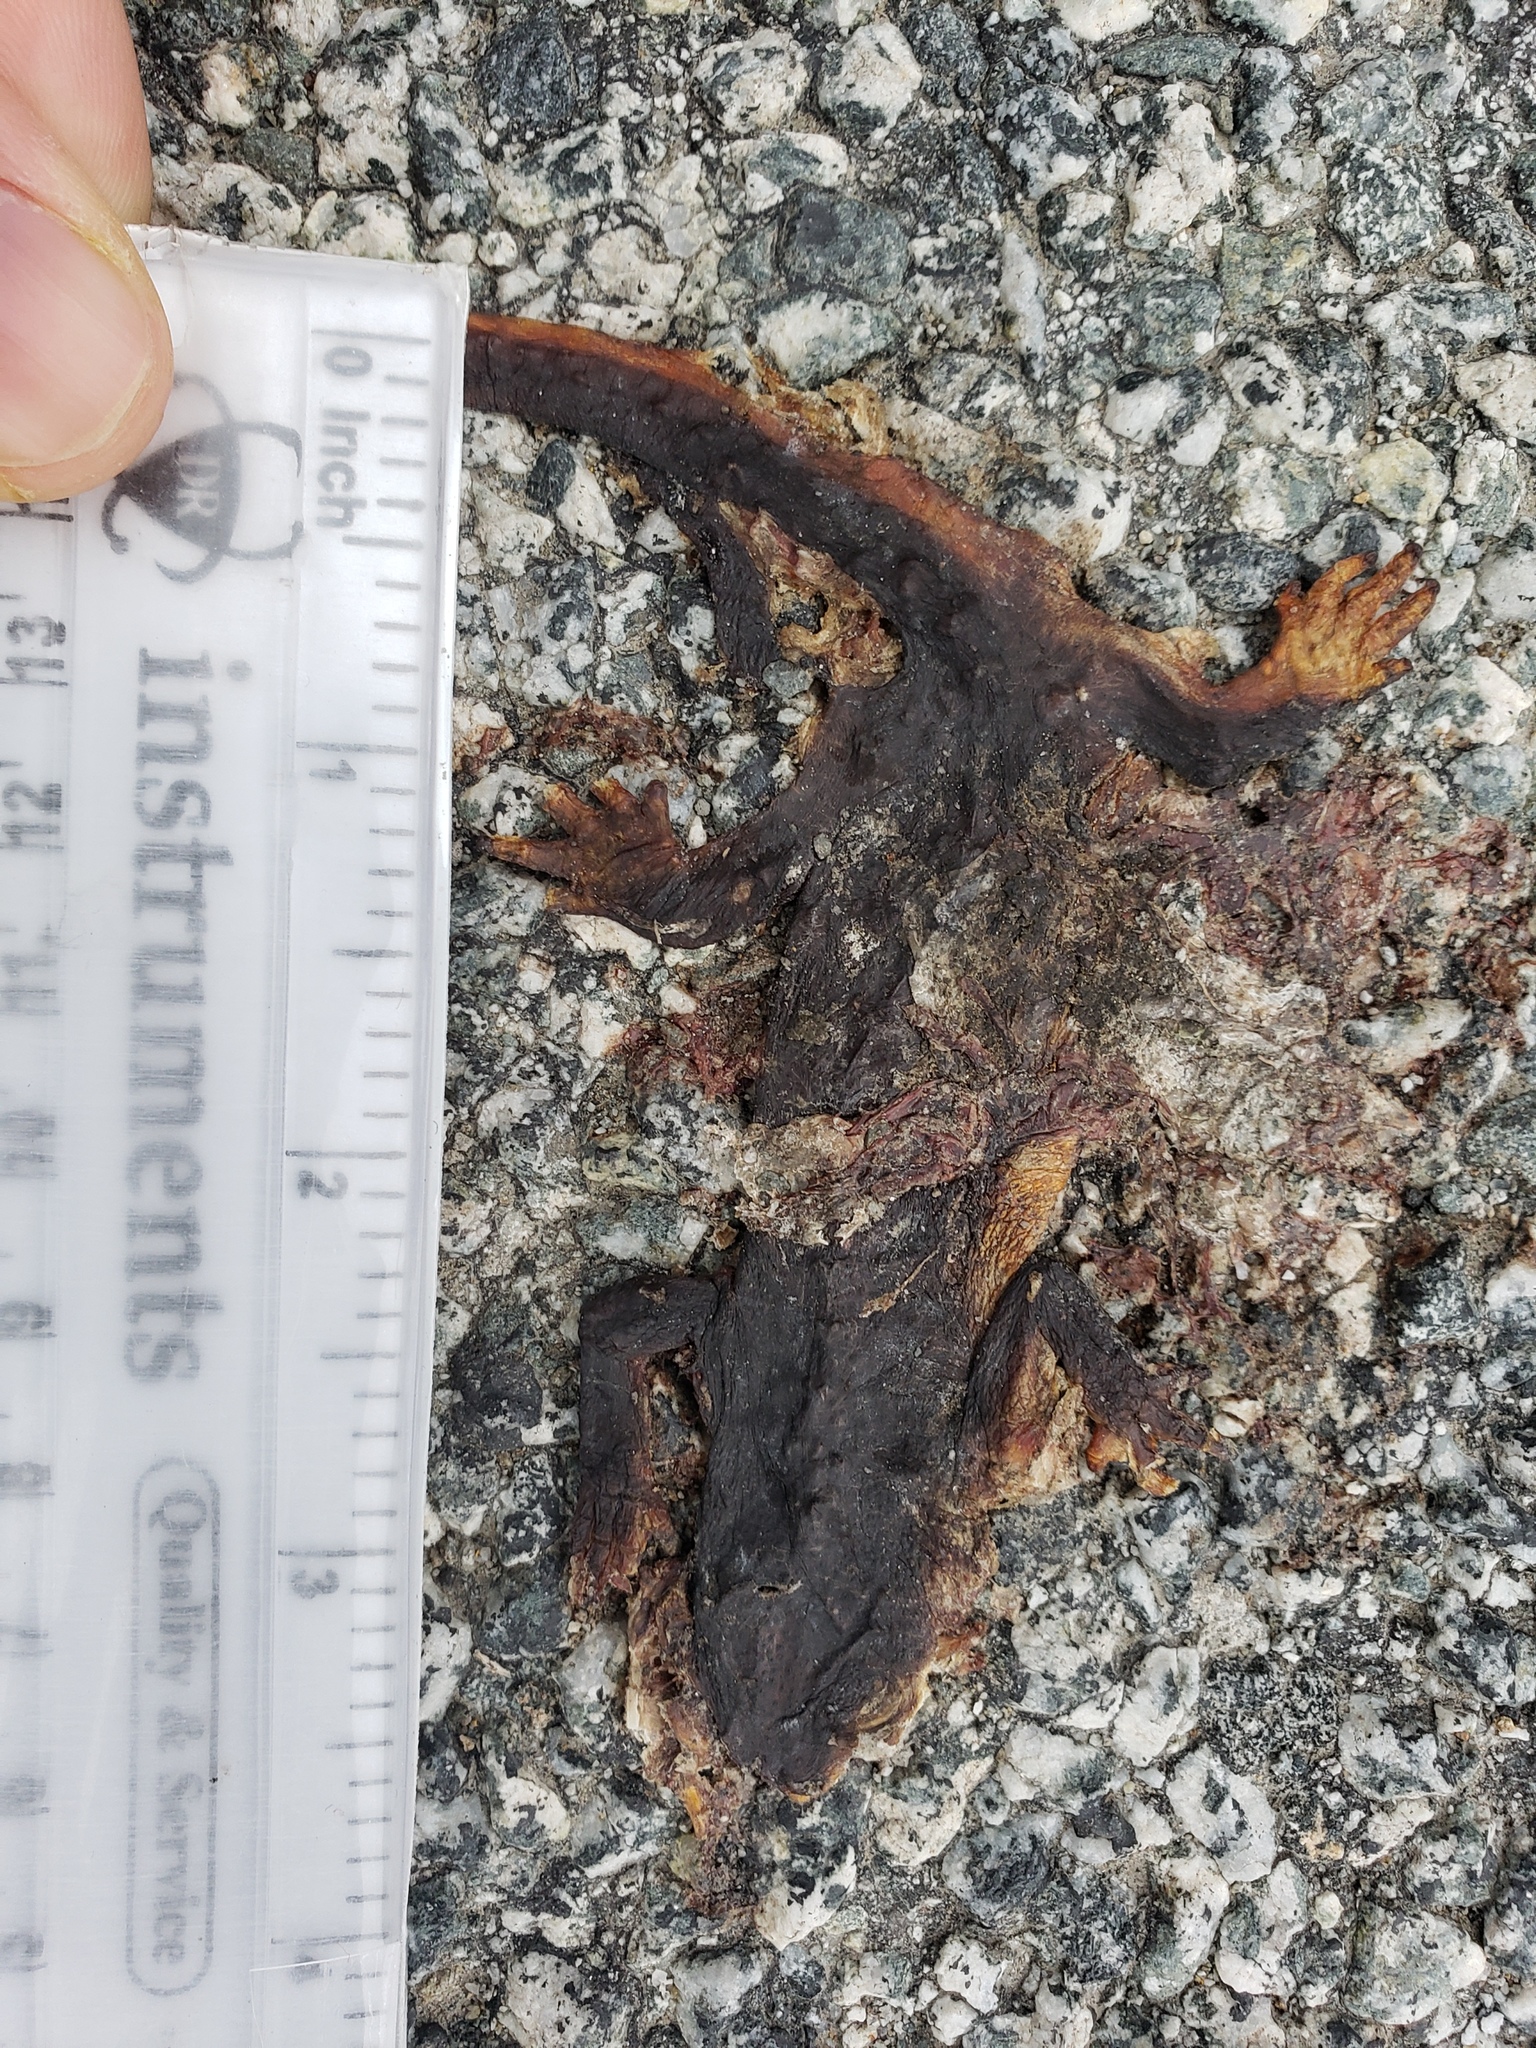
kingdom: Animalia
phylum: Chordata
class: Amphibia
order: Caudata
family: Salamandridae
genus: Taricha
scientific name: Taricha
